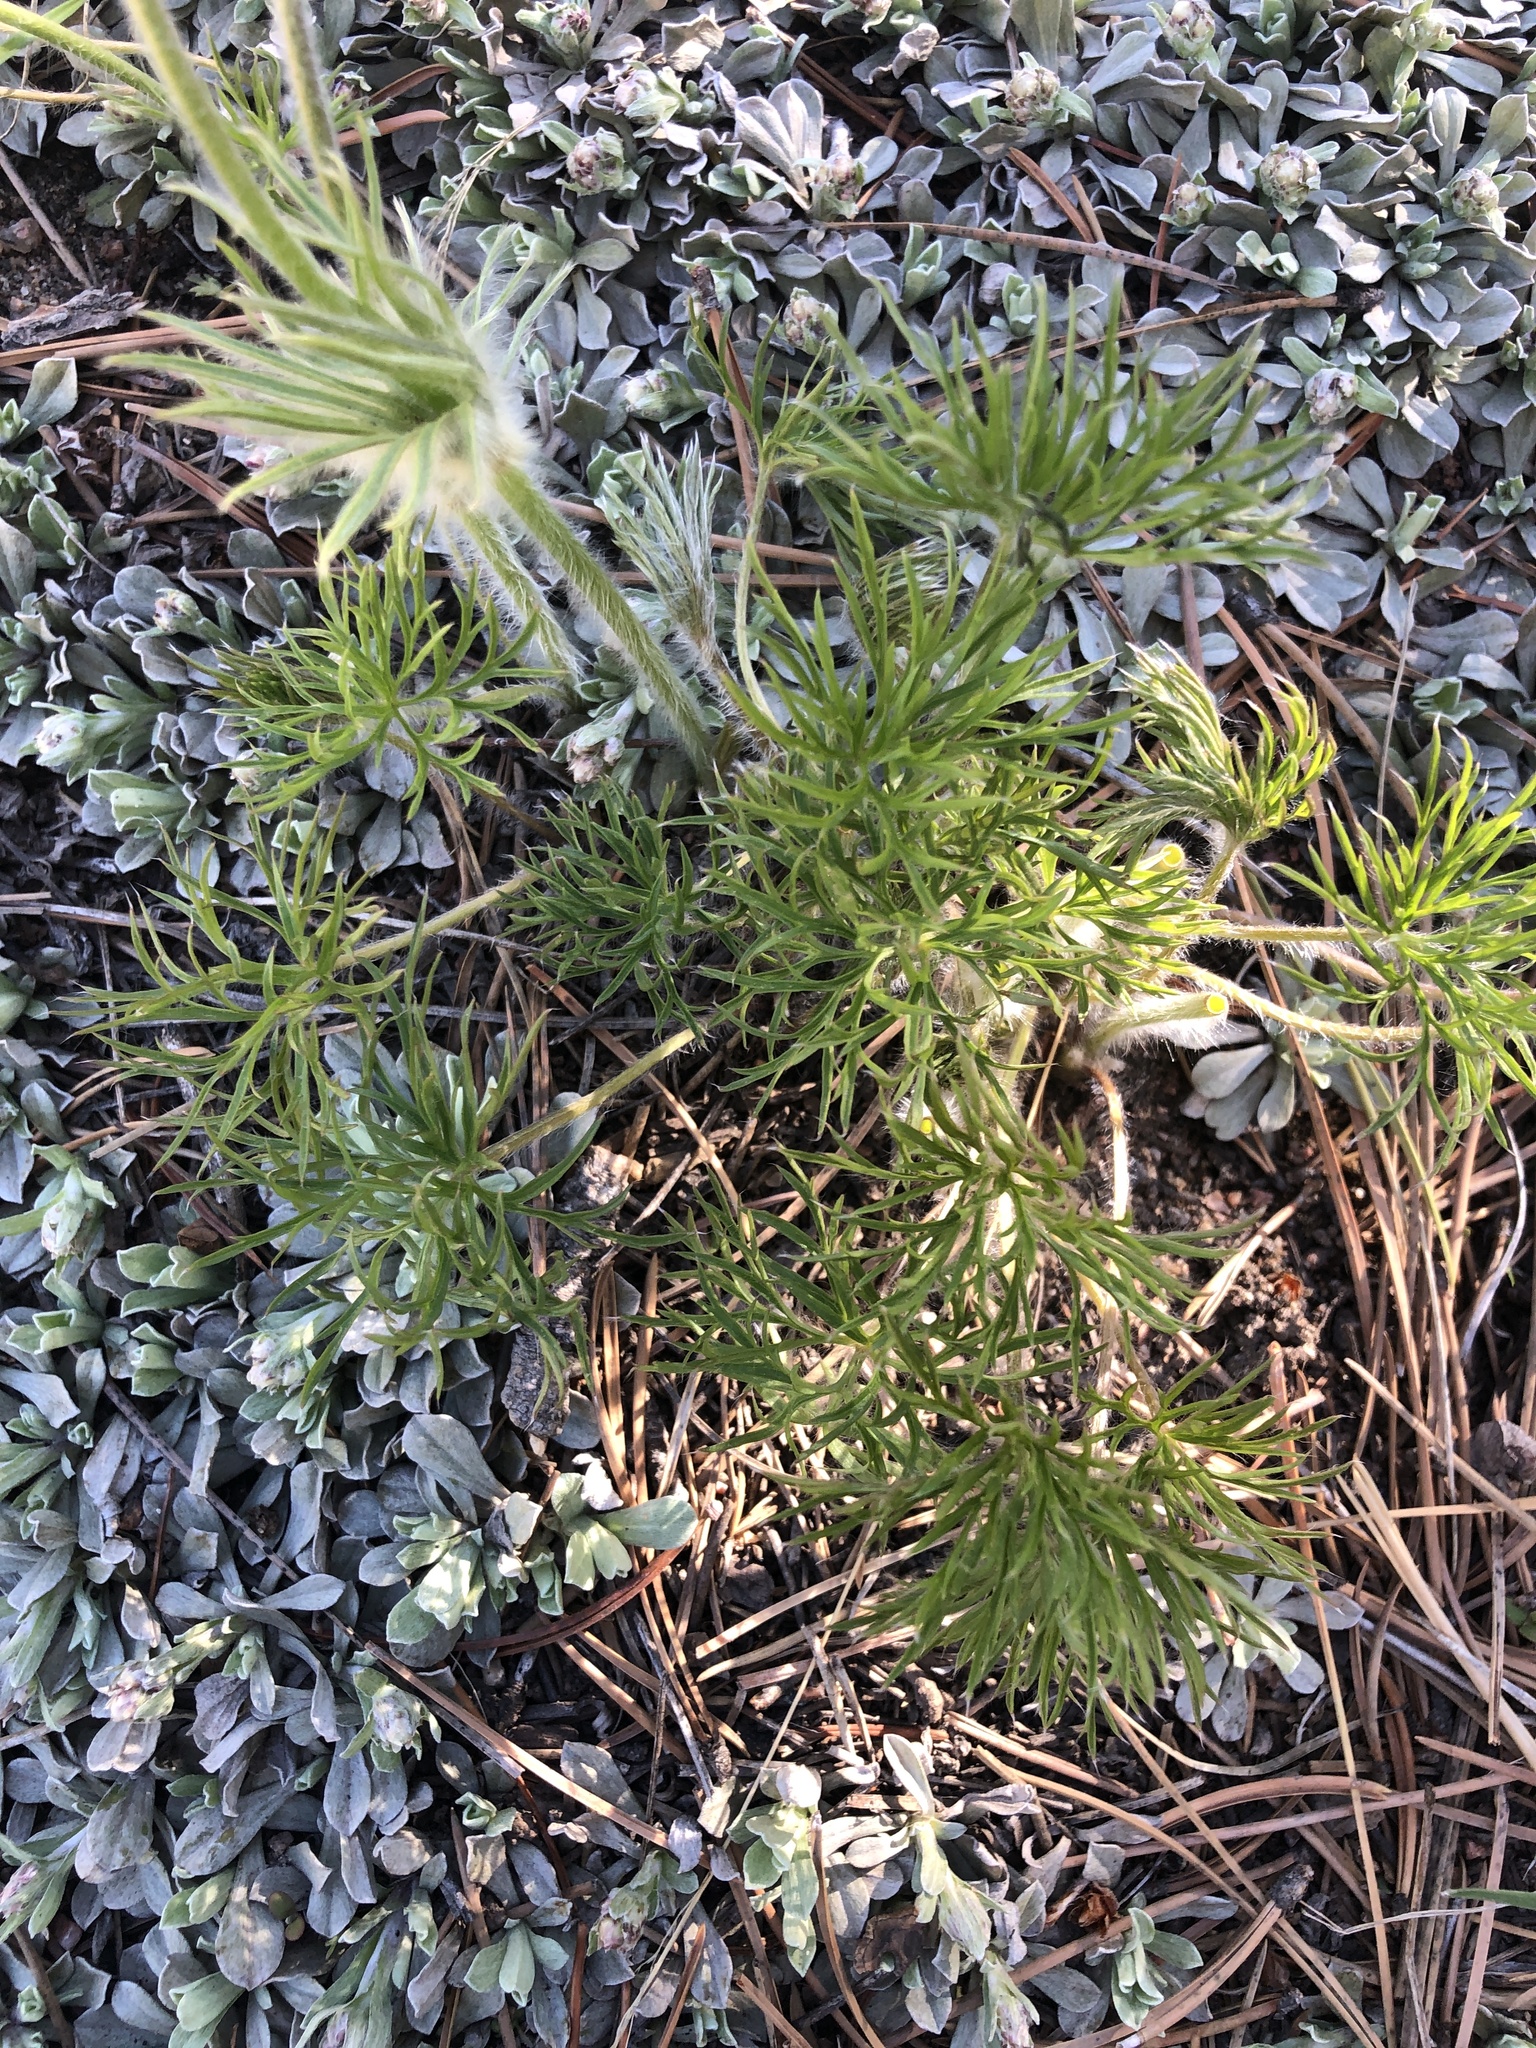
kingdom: Plantae
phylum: Tracheophyta
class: Magnoliopsida
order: Ranunculales
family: Ranunculaceae
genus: Pulsatilla
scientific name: Pulsatilla nuttalliana
